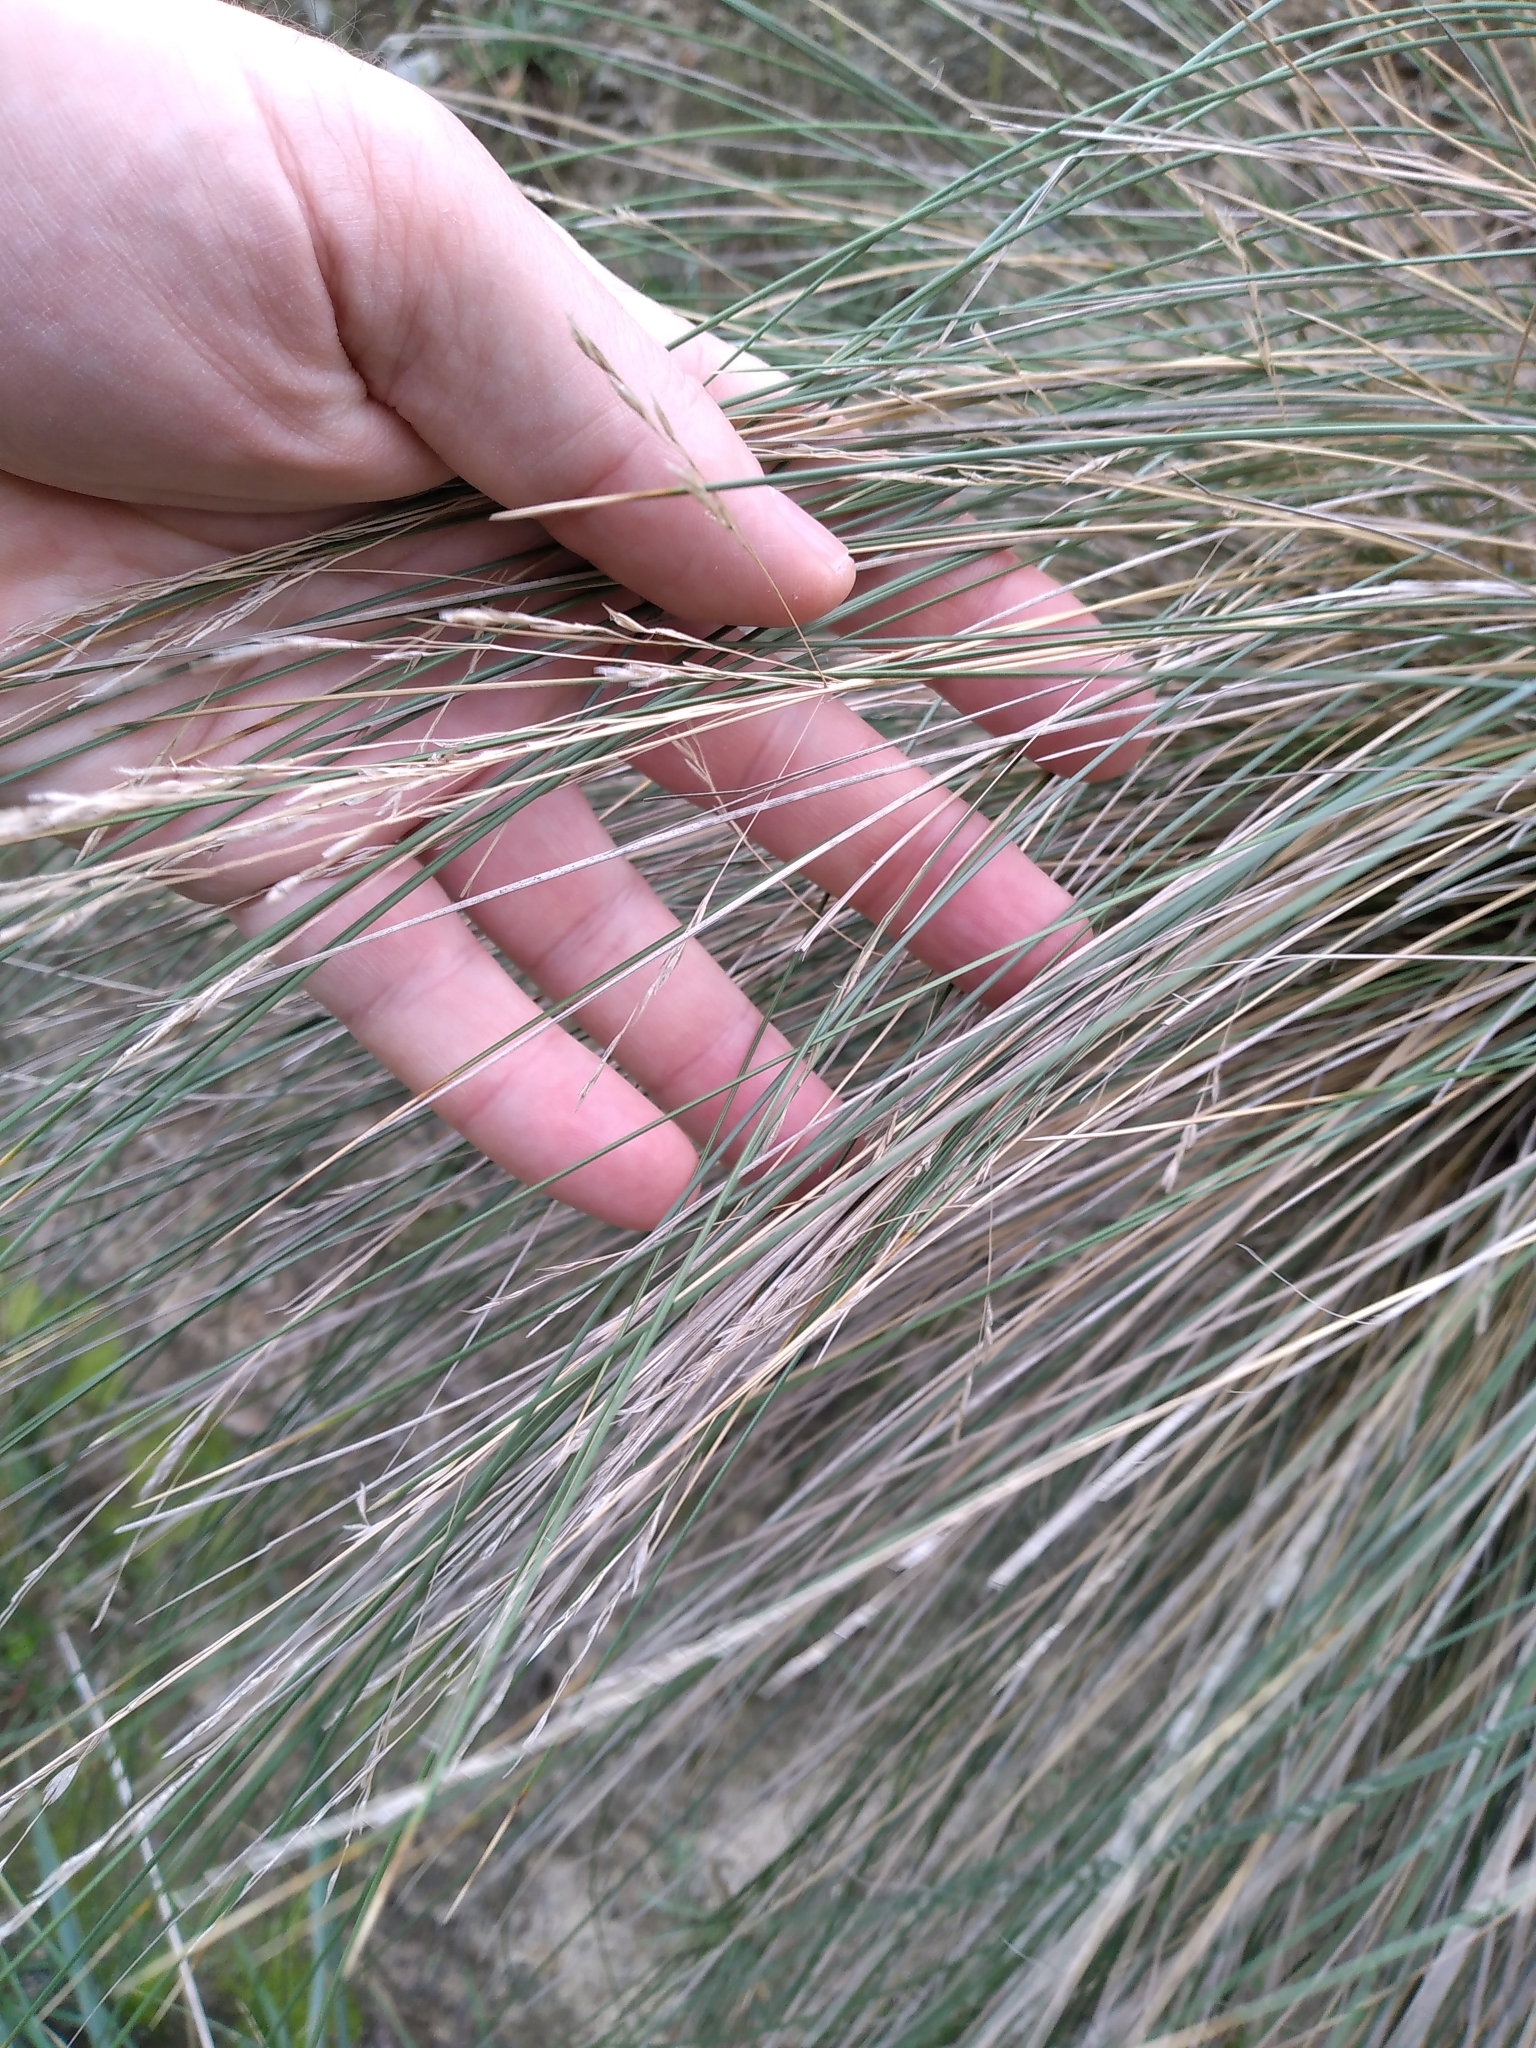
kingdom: Plantae
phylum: Tracheophyta
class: Liliopsida
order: Poales
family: Poaceae
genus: Poa
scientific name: Poa cita
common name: Silver tussock
